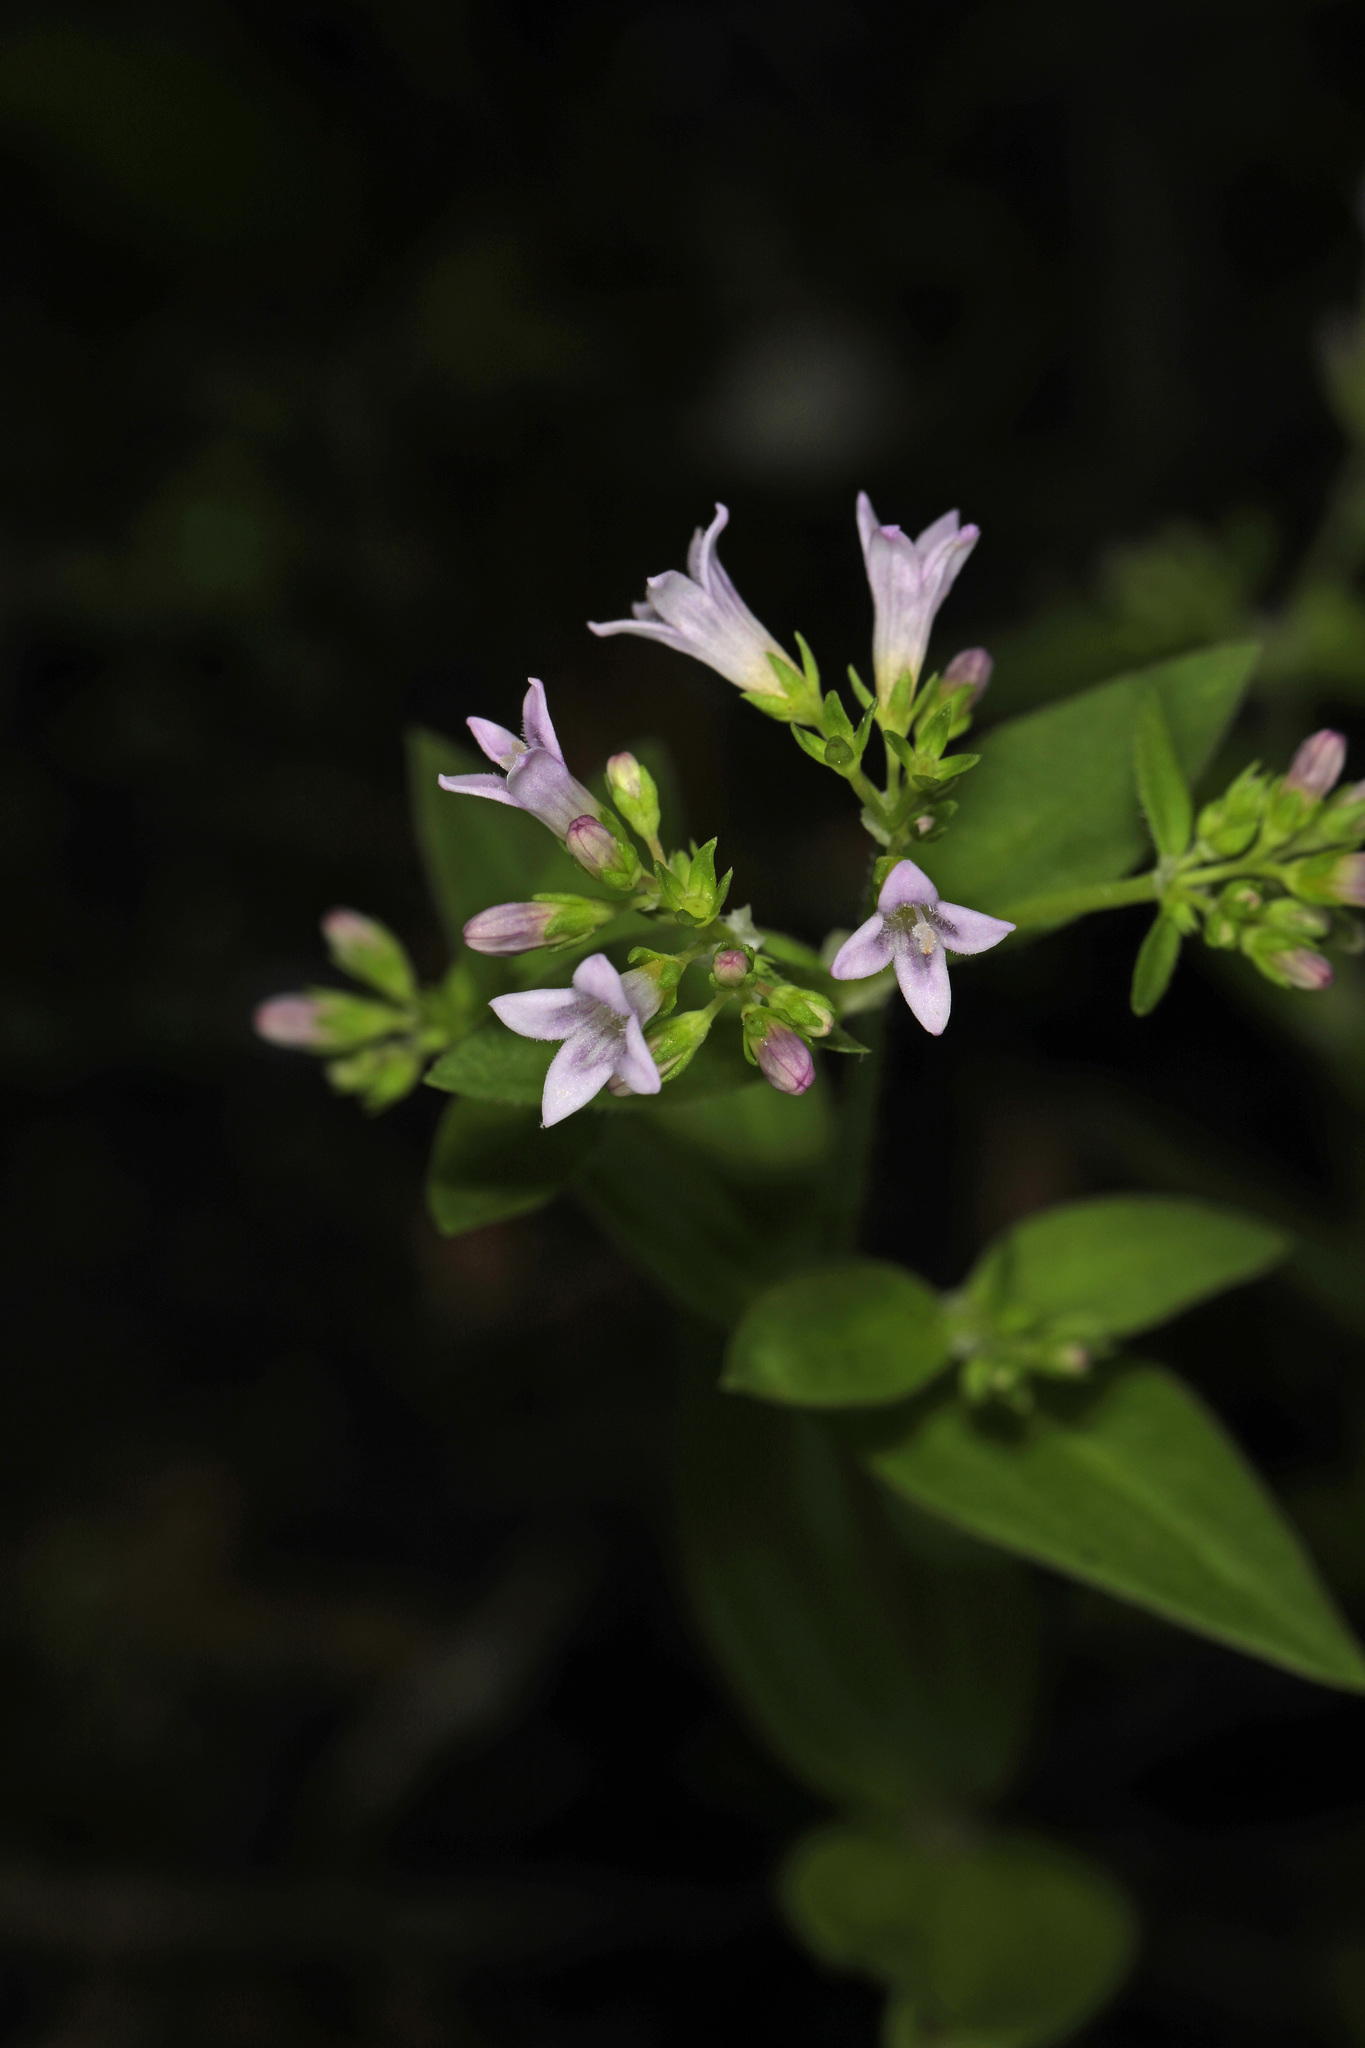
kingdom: Plantae
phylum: Tracheophyta
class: Magnoliopsida
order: Gentianales
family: Rubiaceae
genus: Houstonia
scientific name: Houstonia purpurea
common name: Summer bluet
